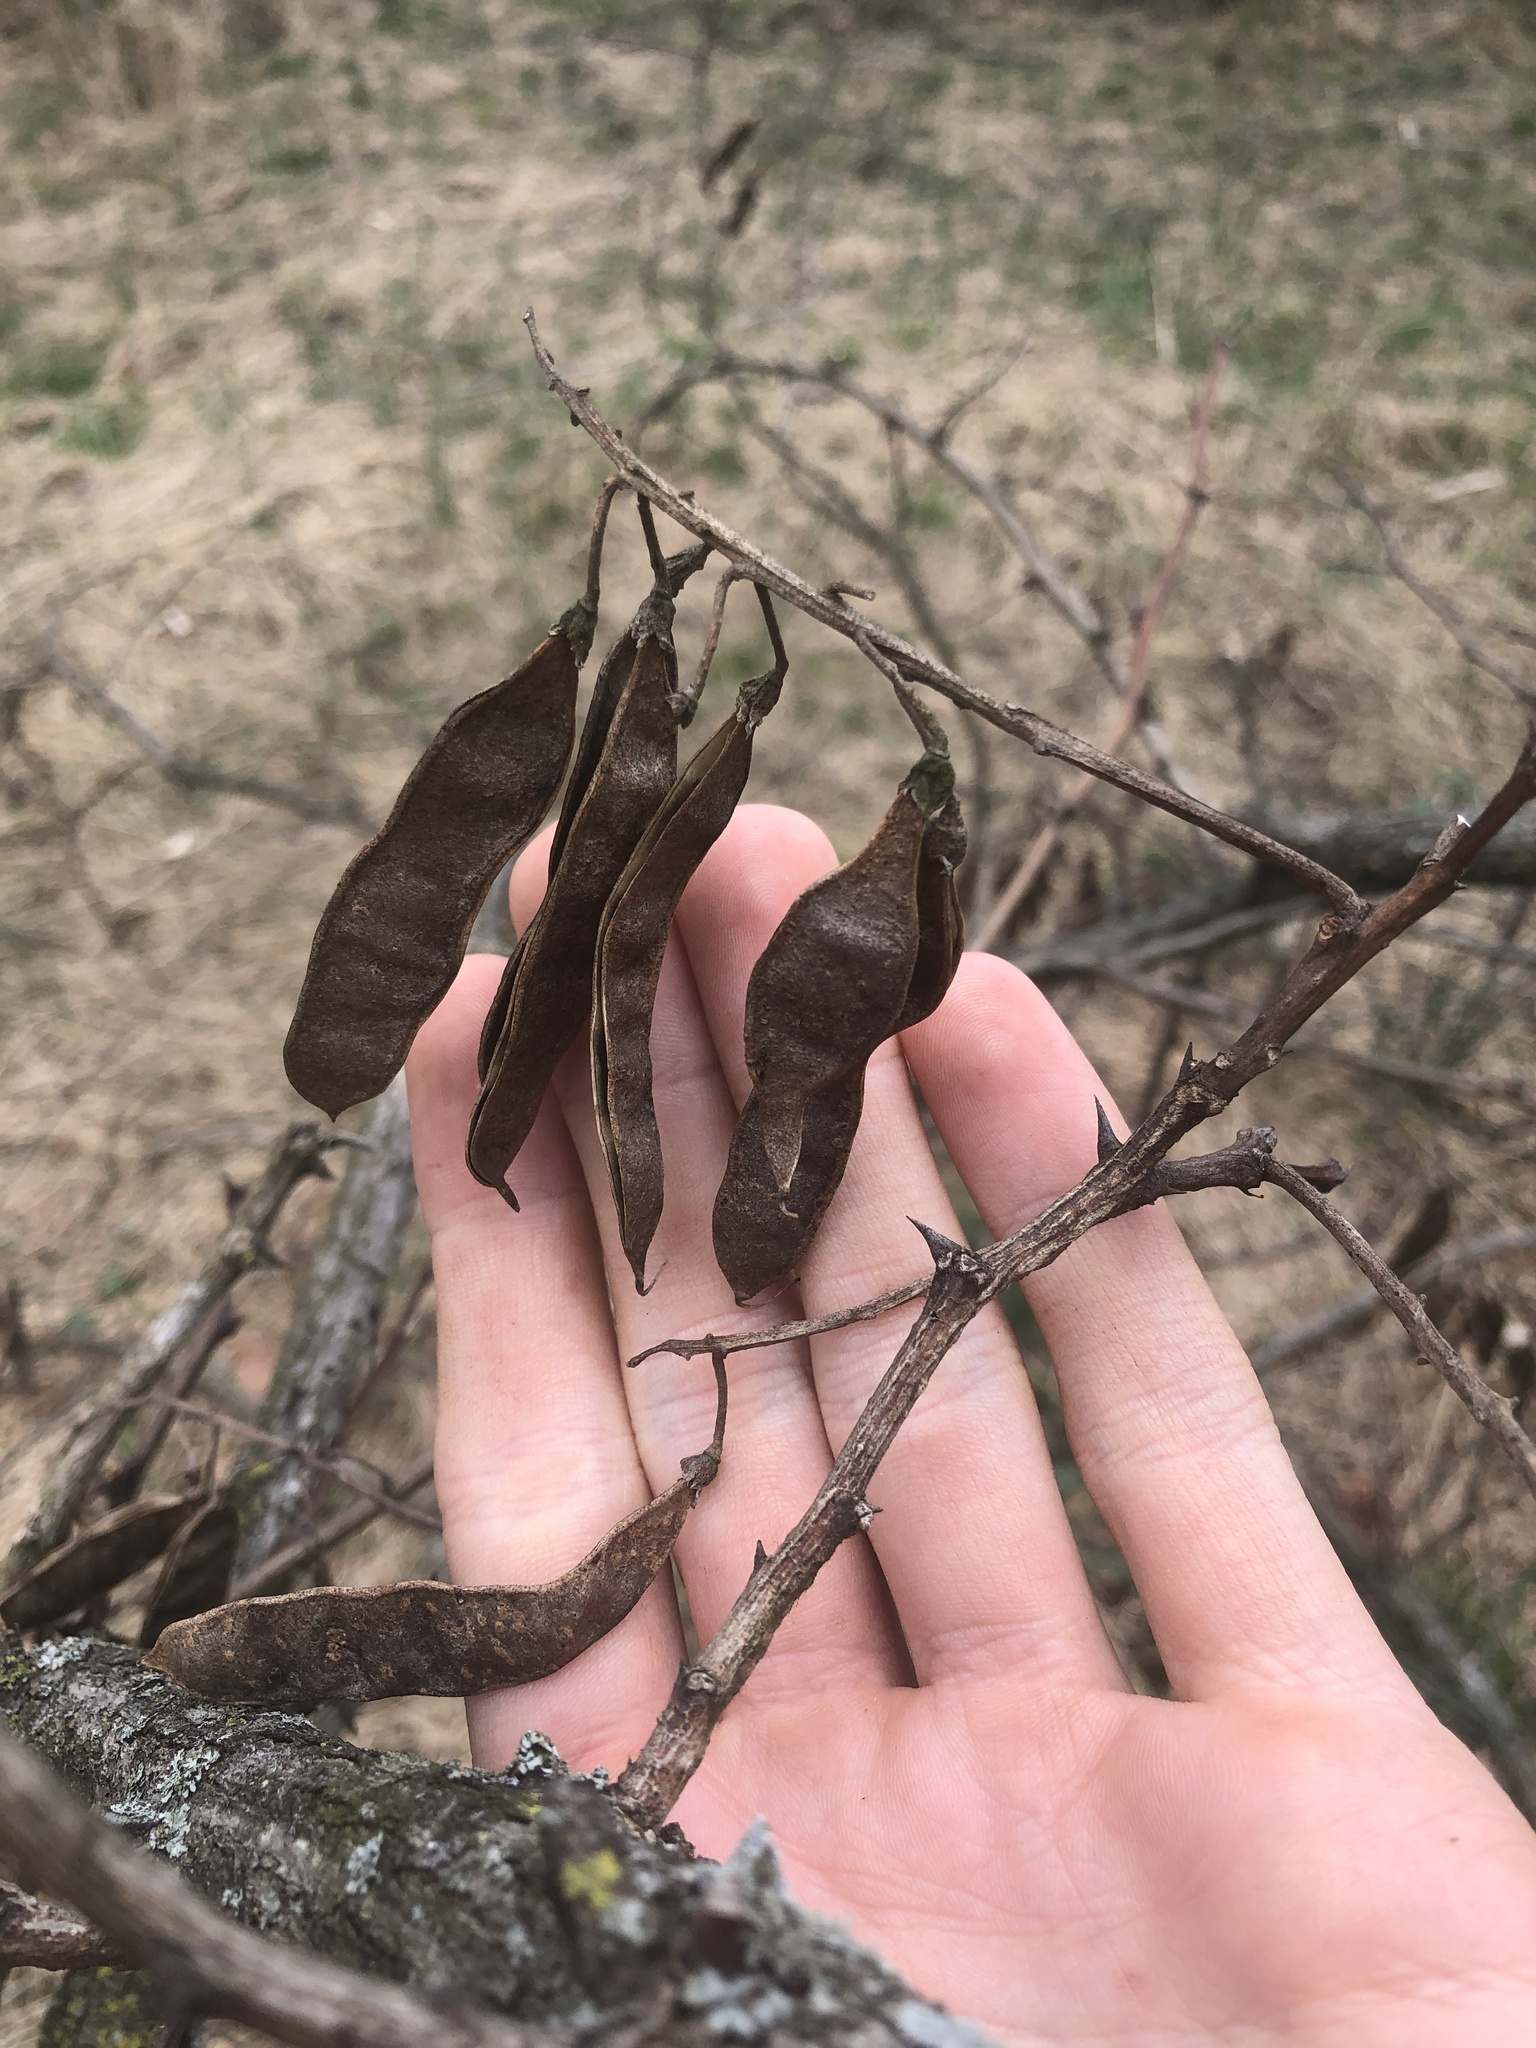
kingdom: Plantae
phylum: Tracheophyta
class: Magnoliopsida
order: Fabales
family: Fabaceae
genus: Robinia
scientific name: Robinia pseudoacacia
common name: Black locust
